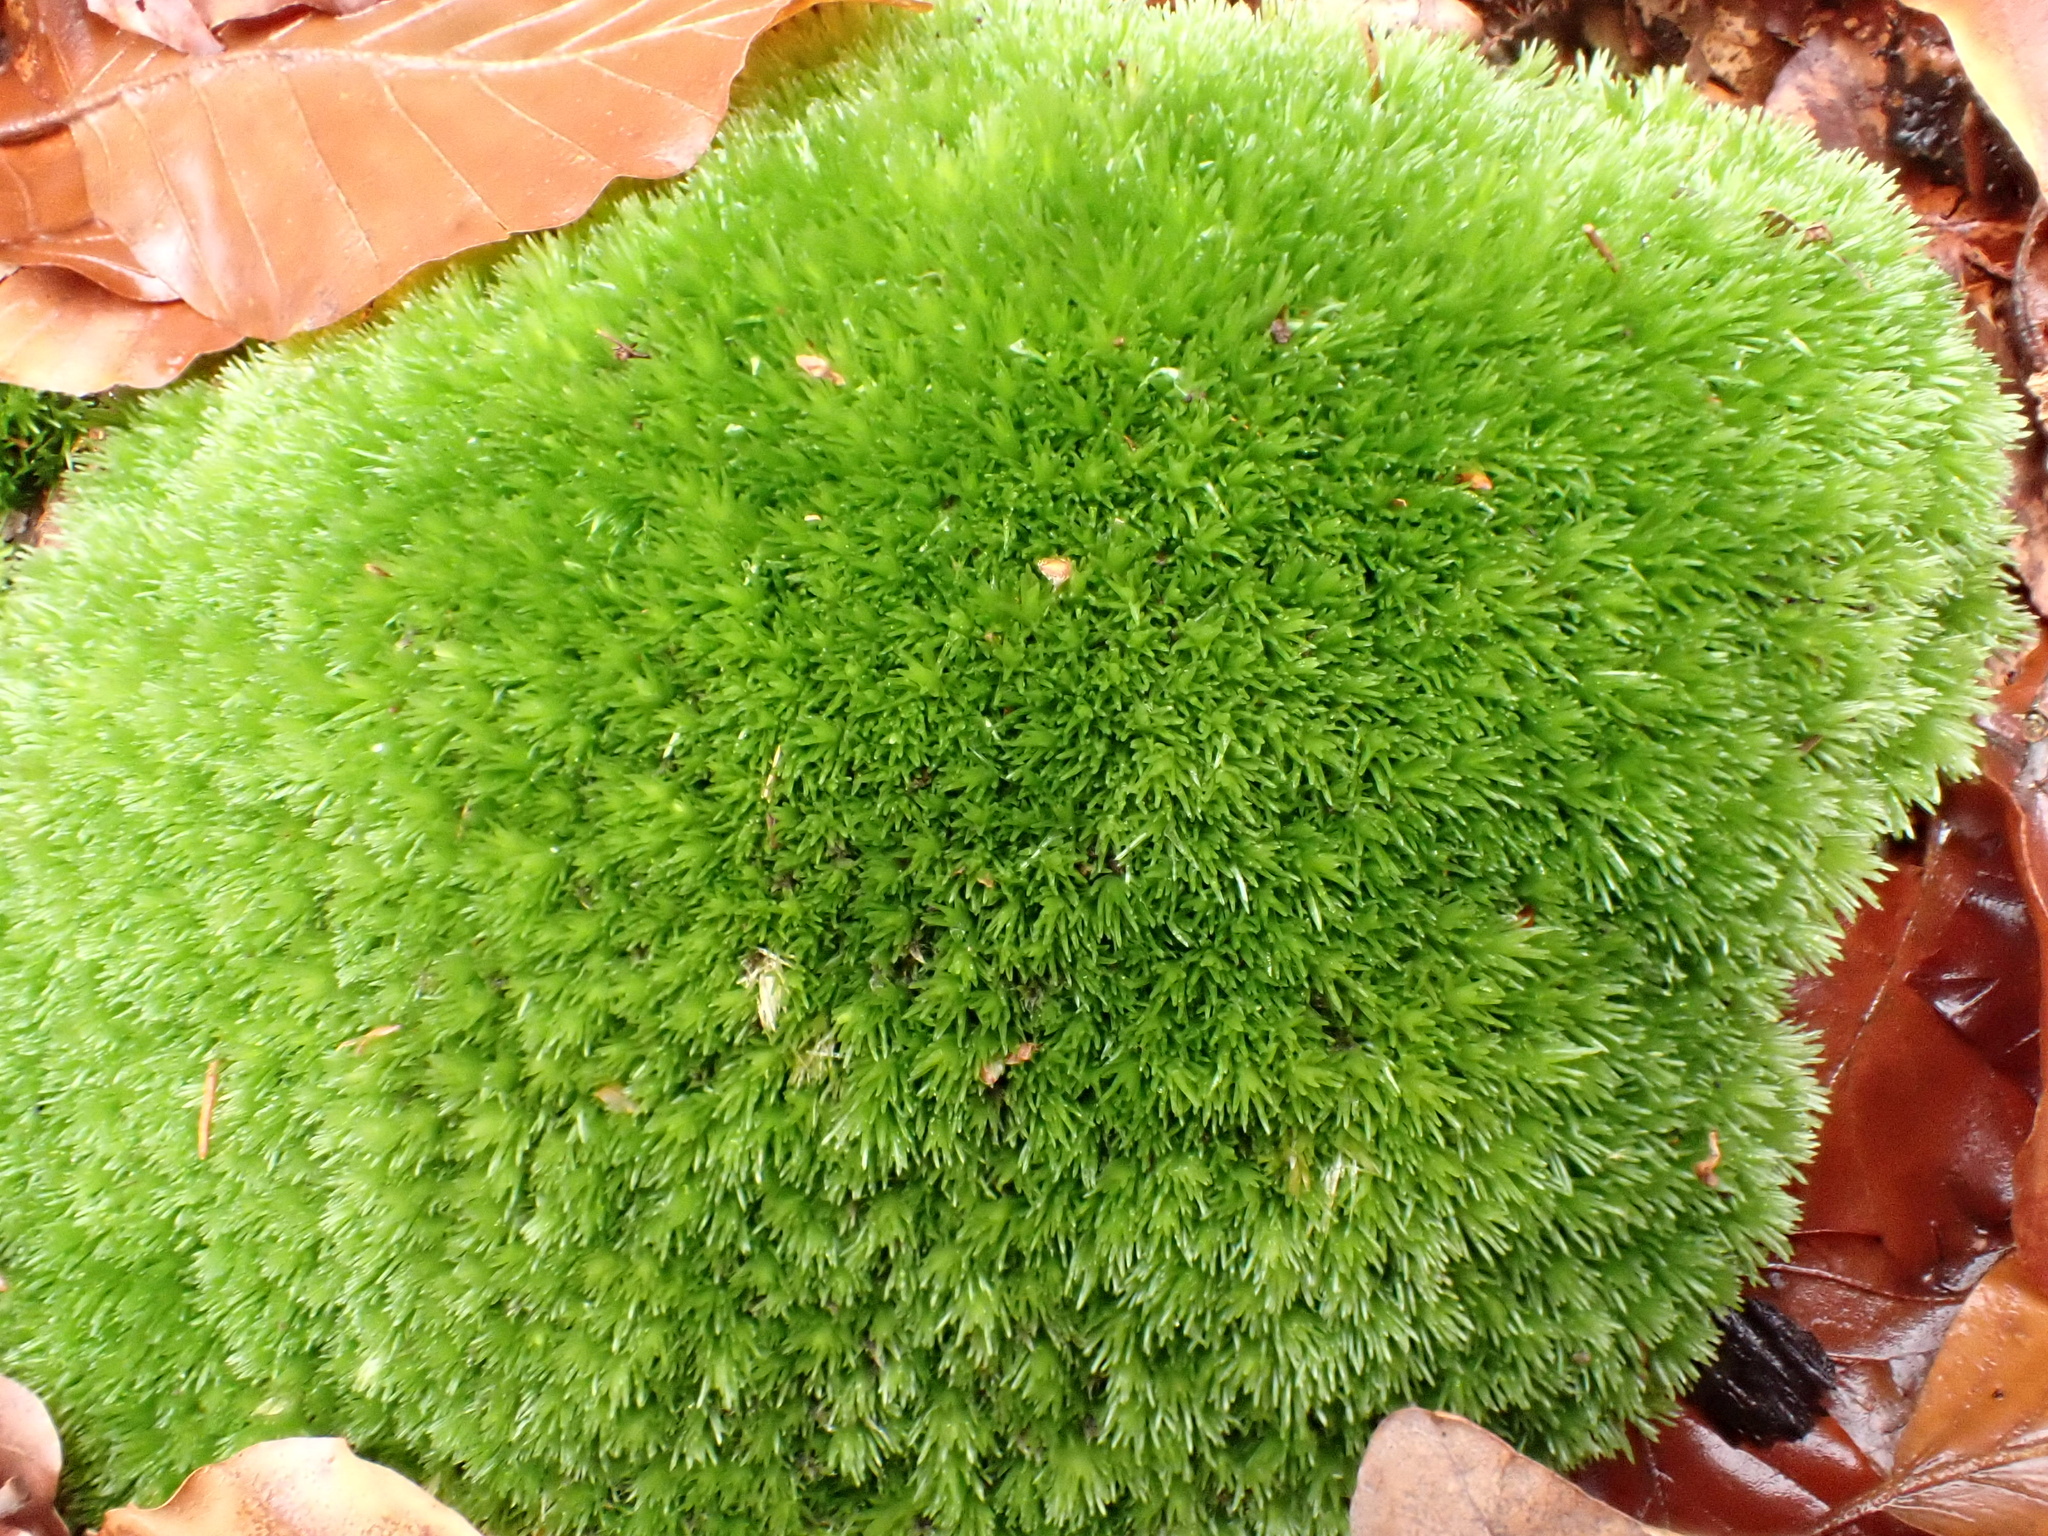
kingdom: Plantae
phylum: Bryophyta
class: Bryopsida
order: Dicranales
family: Leucobryaceae
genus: Leucobryum
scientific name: Leucobryum glaucum
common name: Large white-moss
